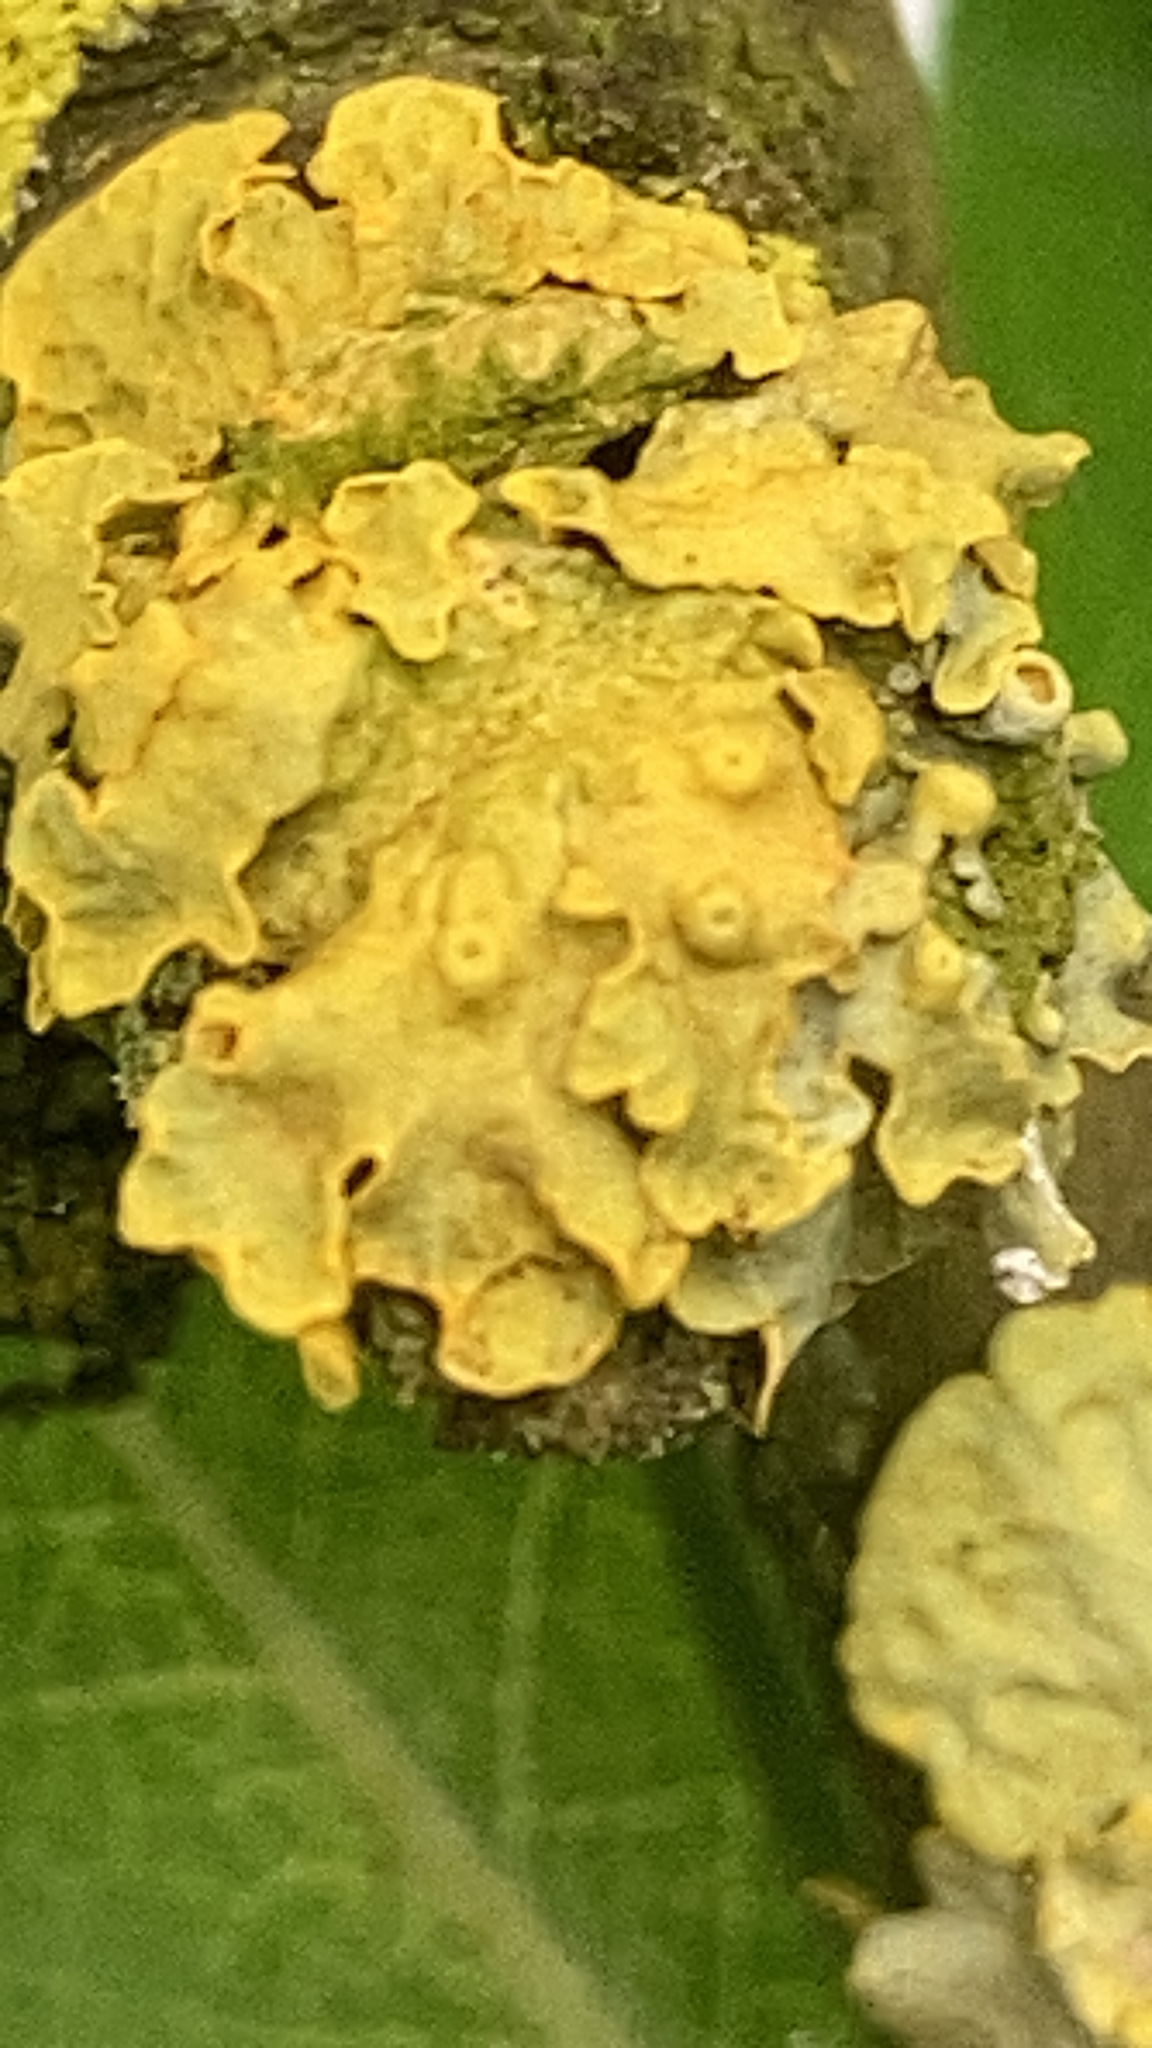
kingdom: Fungi
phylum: Ascomycota
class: Lecanoromycetes
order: Teloschistales
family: Teloschistaceae
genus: Xanthoria
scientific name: Xanthoria parietina
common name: Common orange lichen
